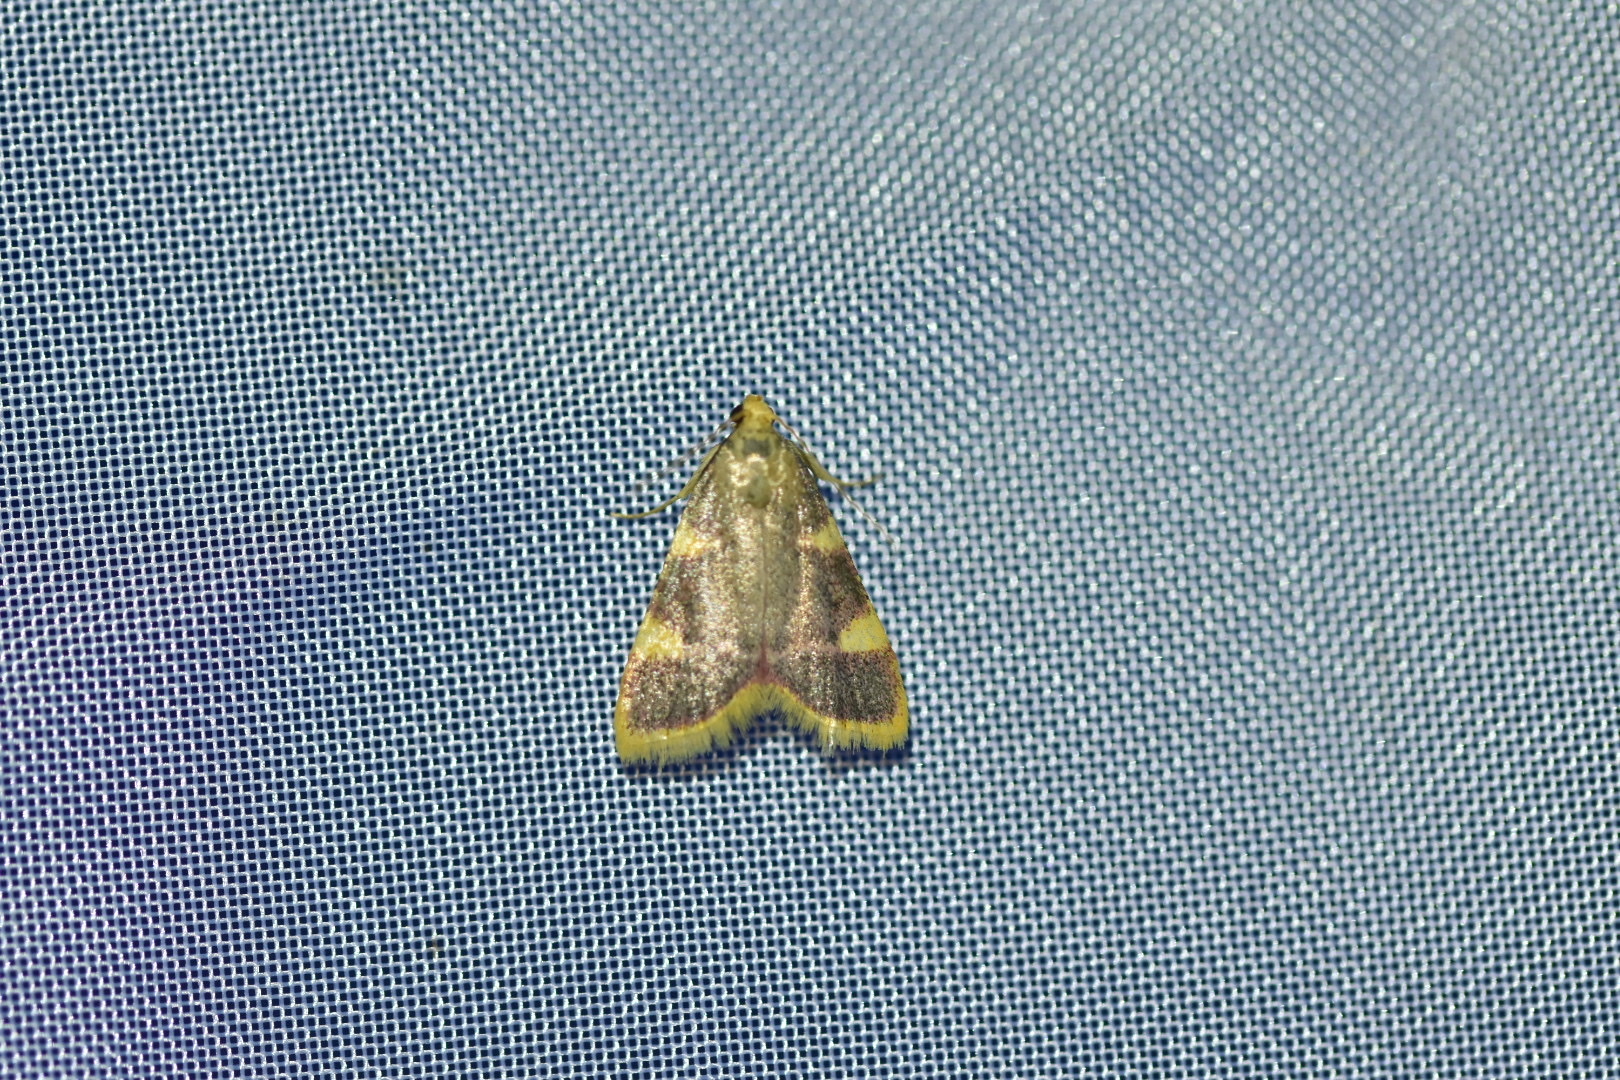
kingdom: Animalia
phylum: Arthropoda
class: Insecta
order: Lepidoptera
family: Pyralidae
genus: Hypsopygia
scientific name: Hypsopygia costalis
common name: Gold triangle
